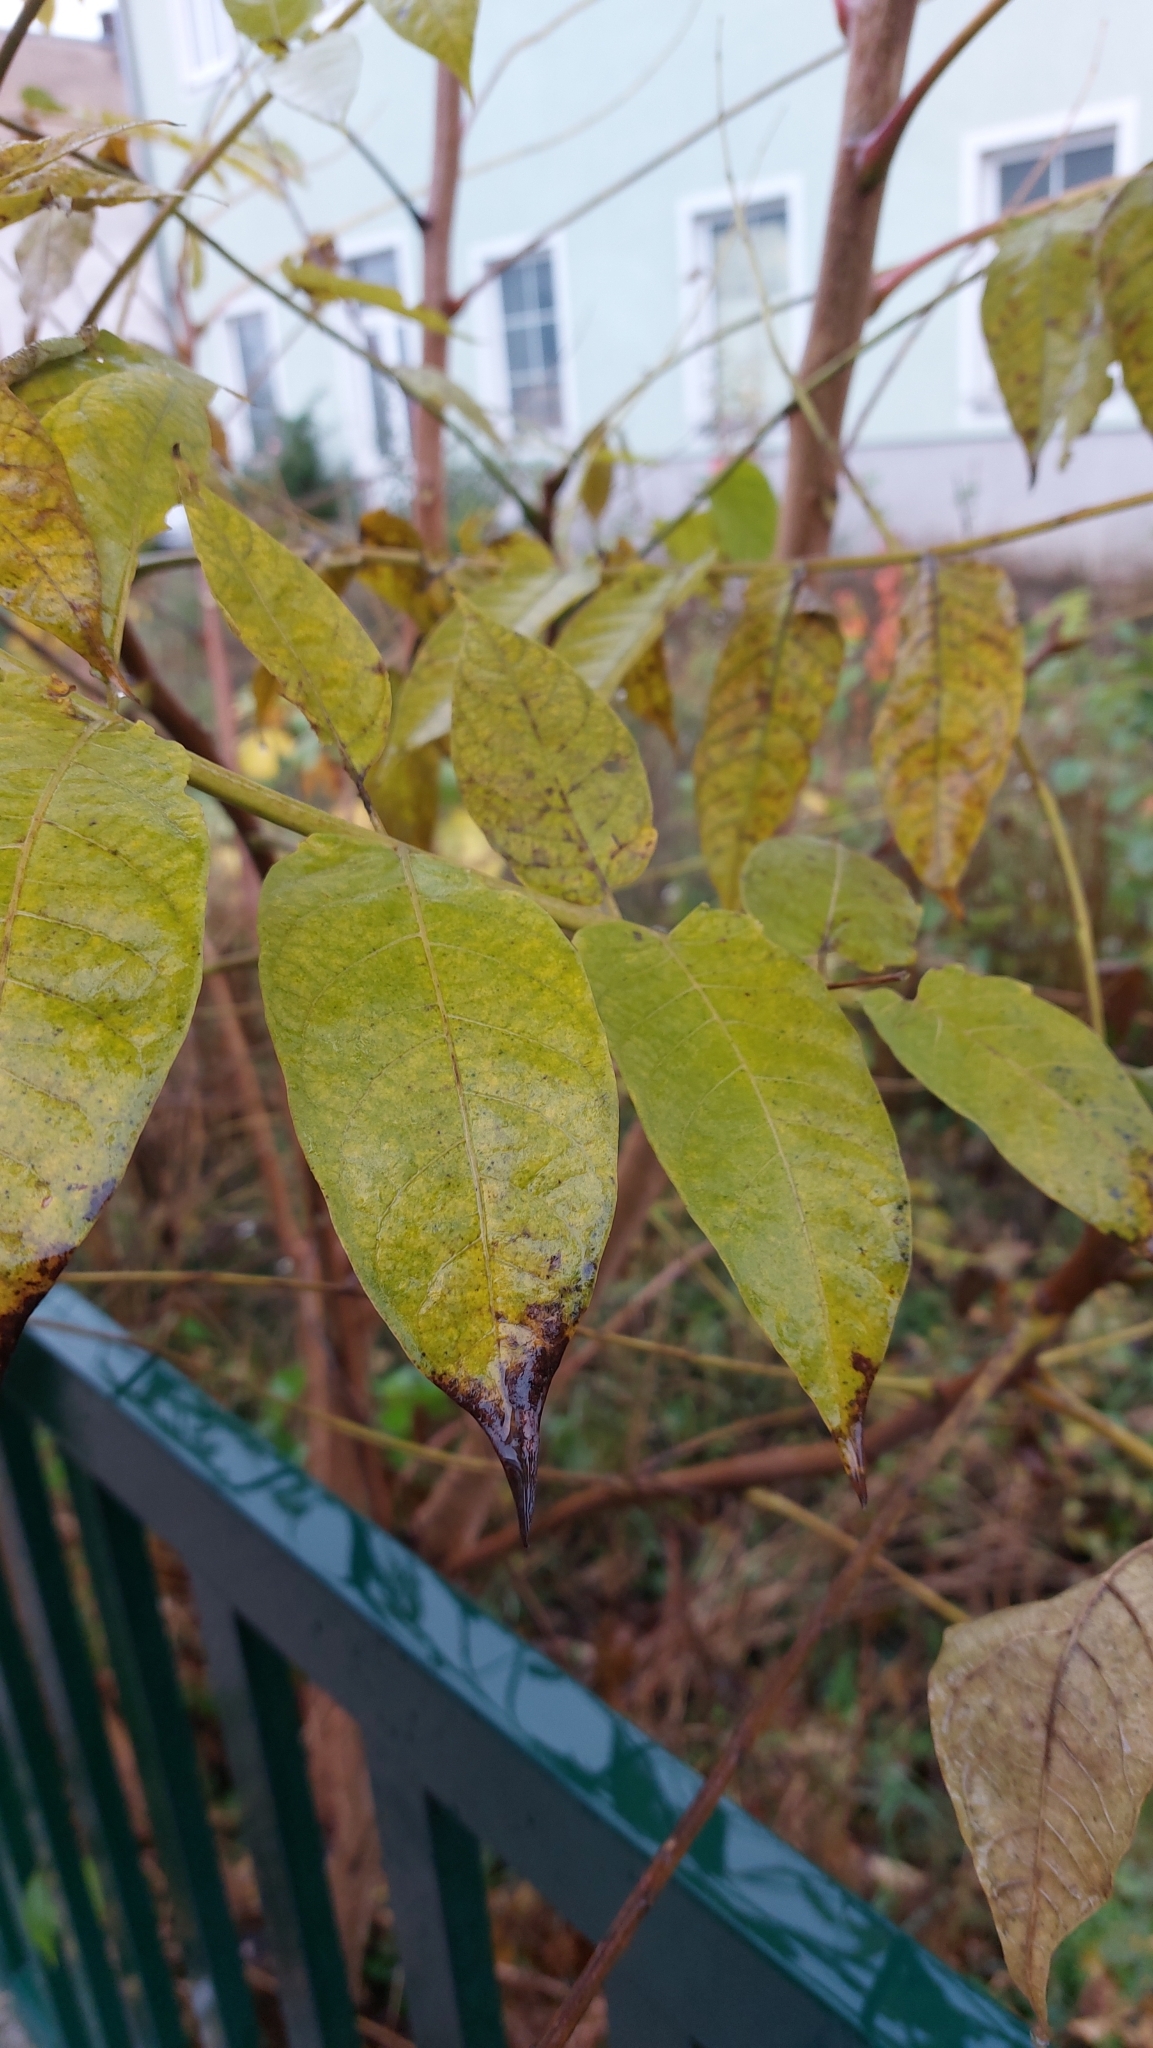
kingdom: Plantae
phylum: Tracheophyta
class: Magnoliopsida
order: Sapindales
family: Simaroubaceae
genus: Ailanthus
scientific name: Ailanthus altissima
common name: Tree-of-heaven
